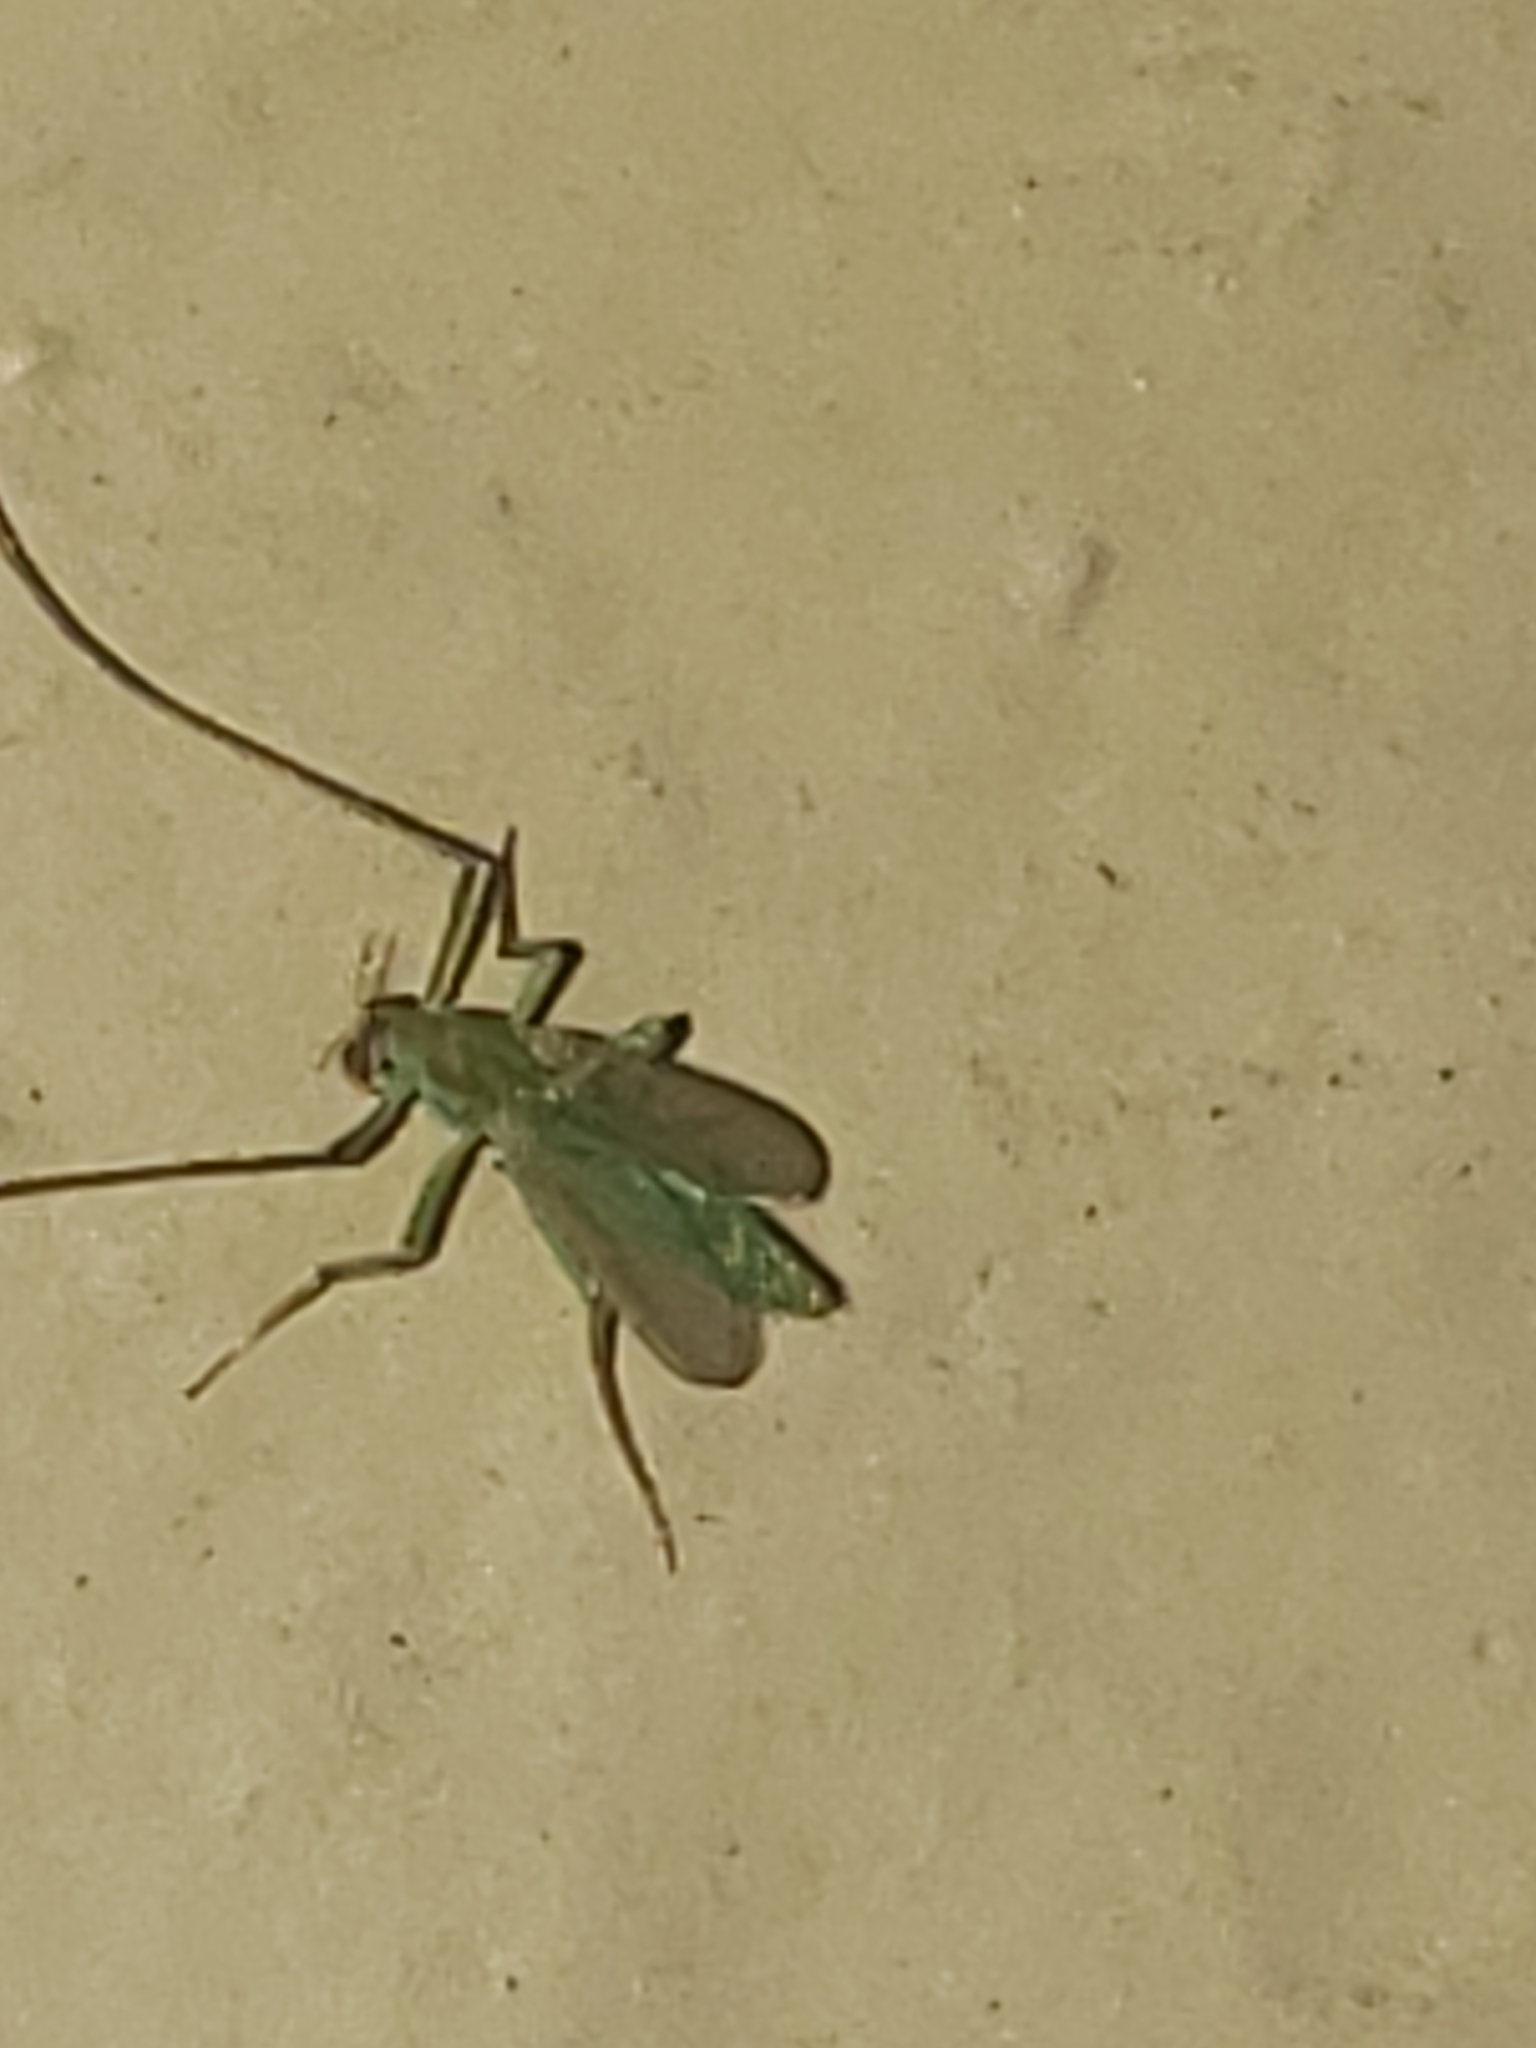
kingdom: Animalia
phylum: Arthropoda
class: Insecta
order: Diptera
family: Chironomidae
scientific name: Chironomidae
